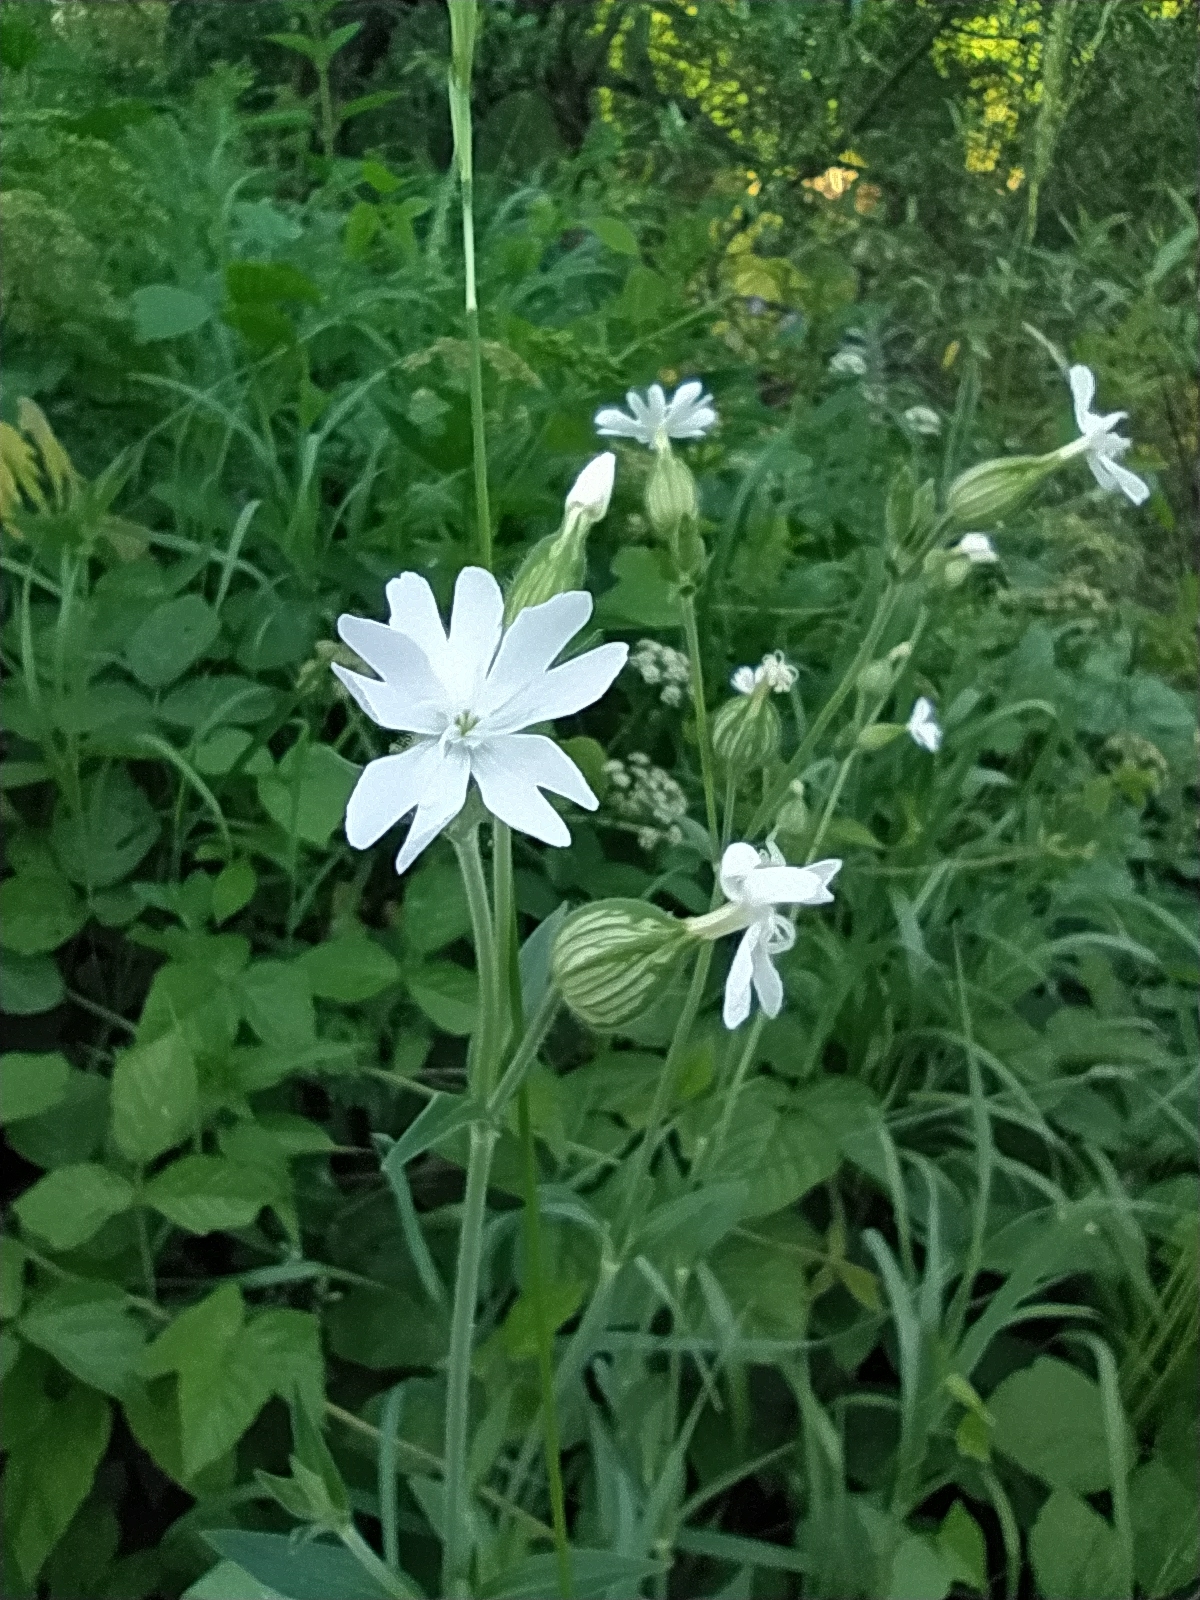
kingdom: Plantae
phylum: Tracheophyta
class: Magnoliopsida
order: Caryophyllales
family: Caryophyllaceae
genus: Silene
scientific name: Silene latifolia
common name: White campion
